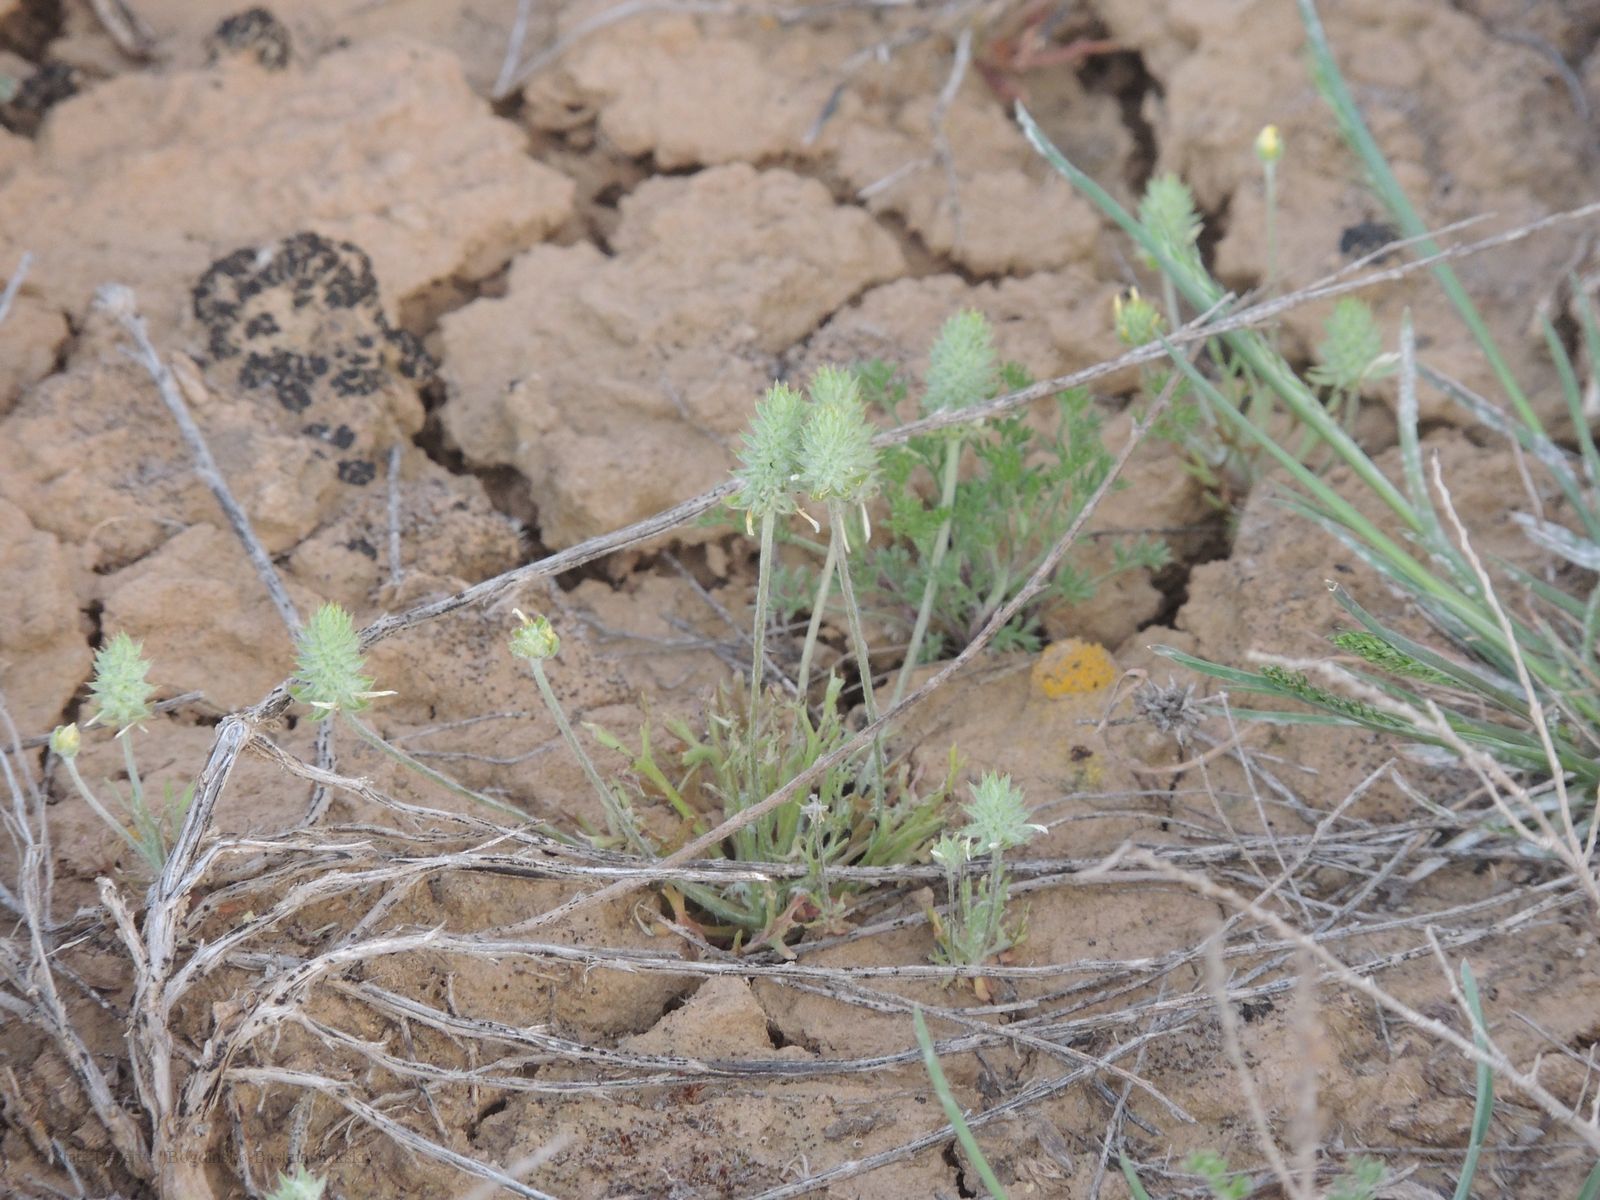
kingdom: Plantae
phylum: Tracheophyta
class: Magnoliopsida
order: Ranunculales
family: Ranunculaceae
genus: Ceratocephala
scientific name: Ceratocephala orthoceras
